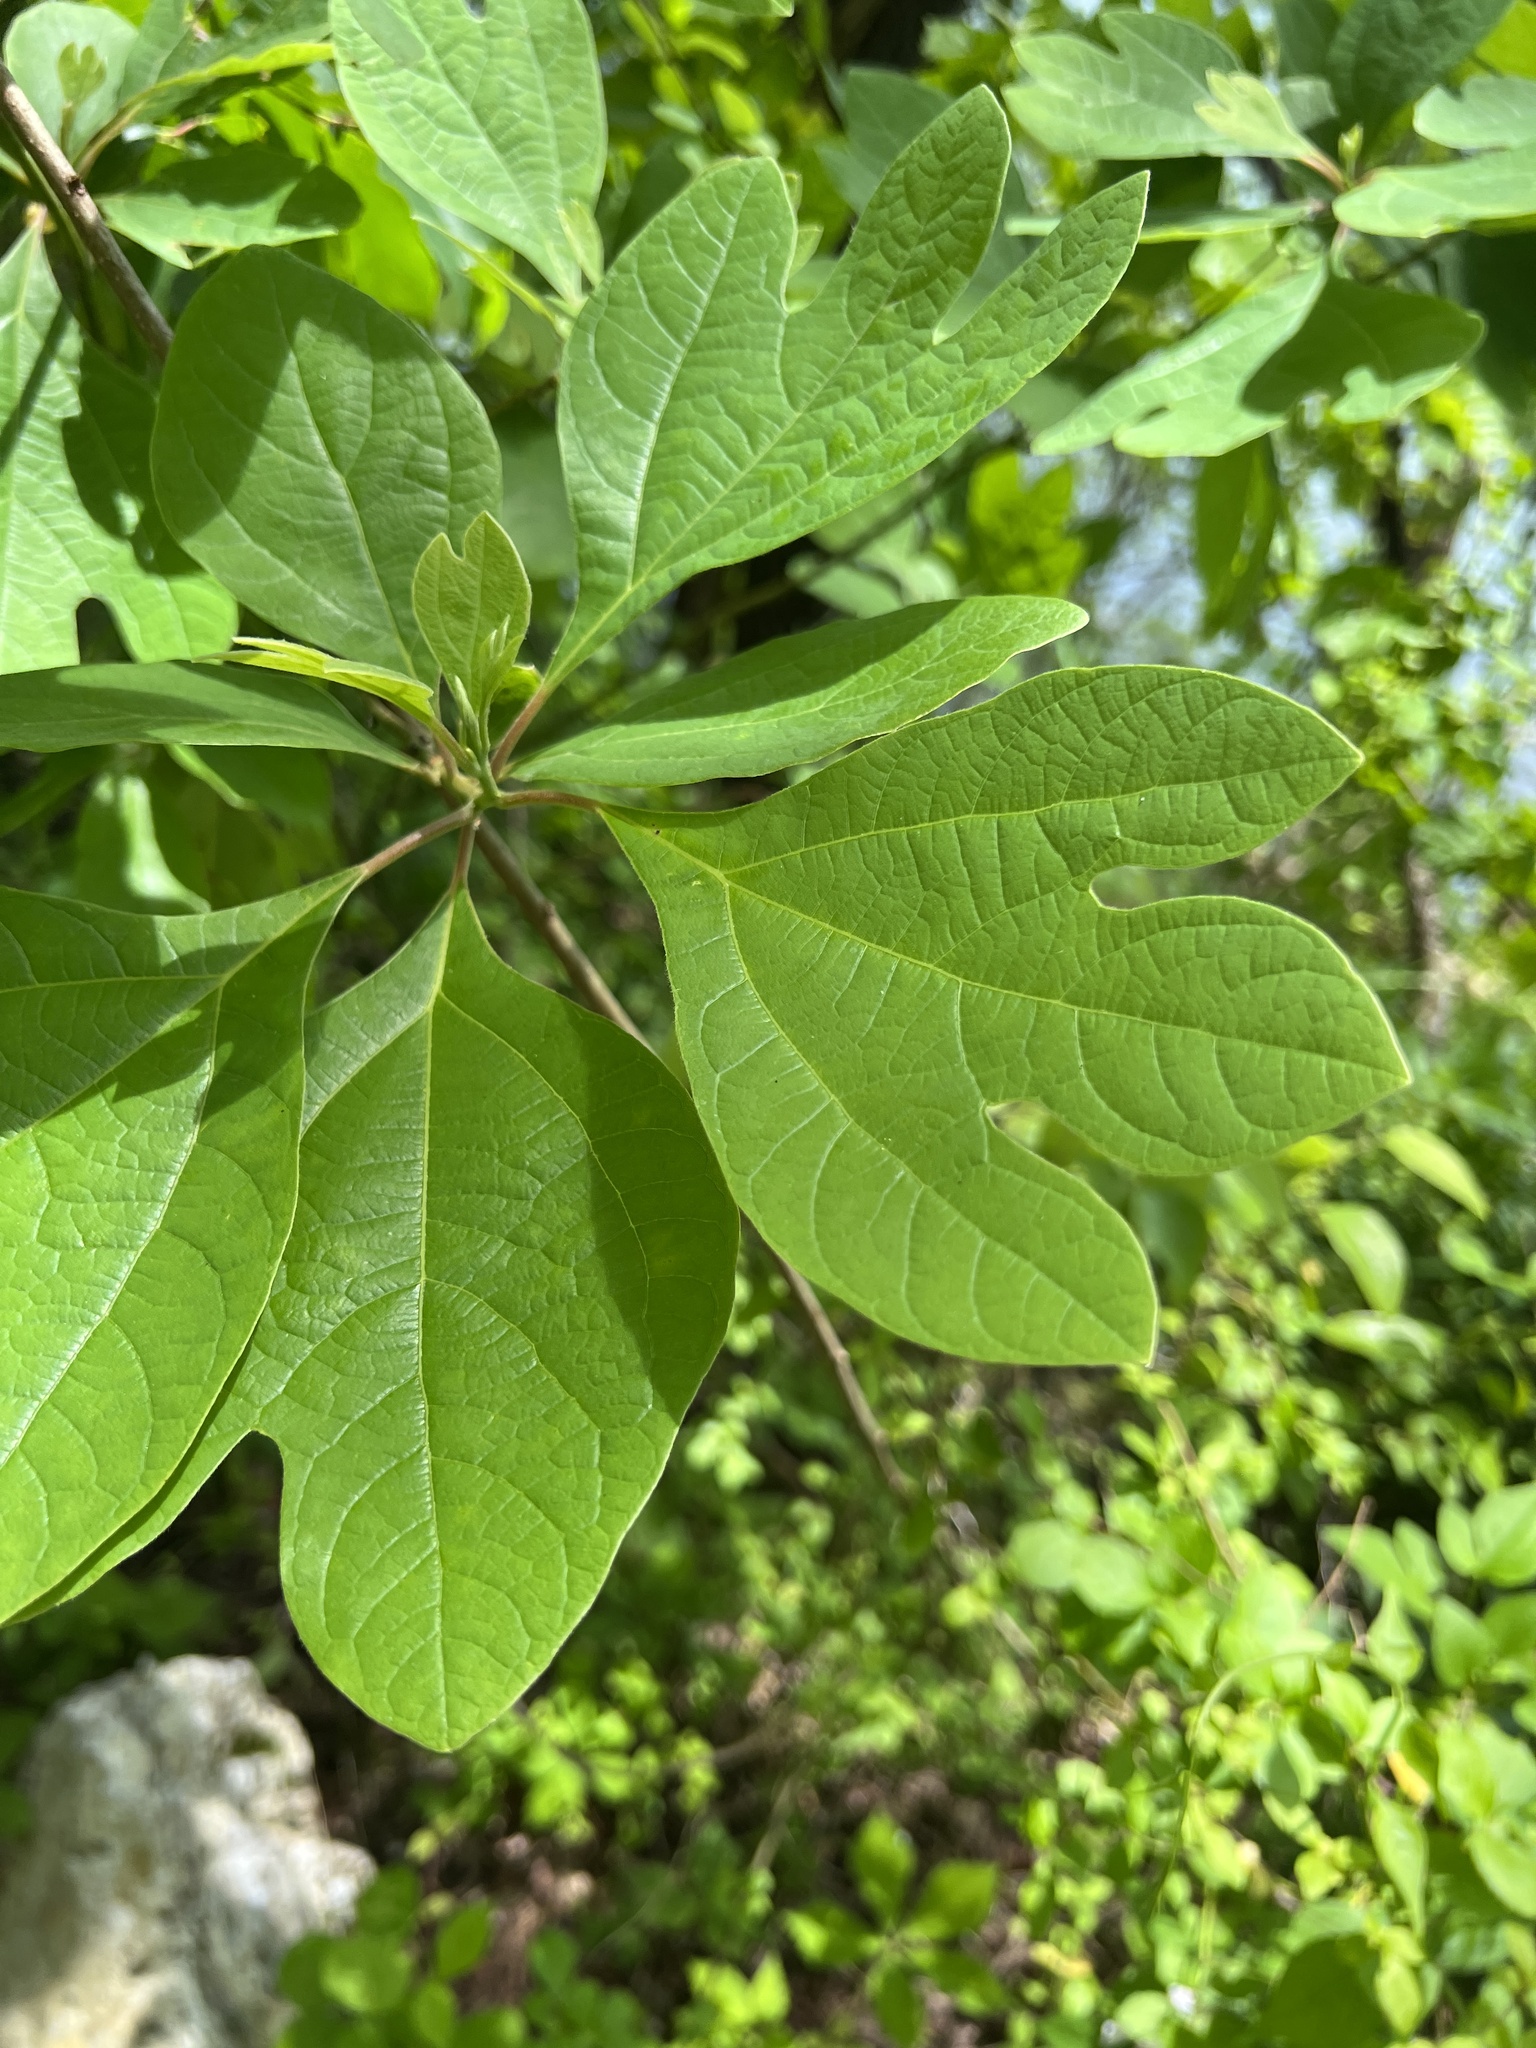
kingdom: Plantae
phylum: Tracheophyta
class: Magnoliopsida
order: Laurales
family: Lauraceae
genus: Sassafras
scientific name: Sassafras albidum
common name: Sassafras
